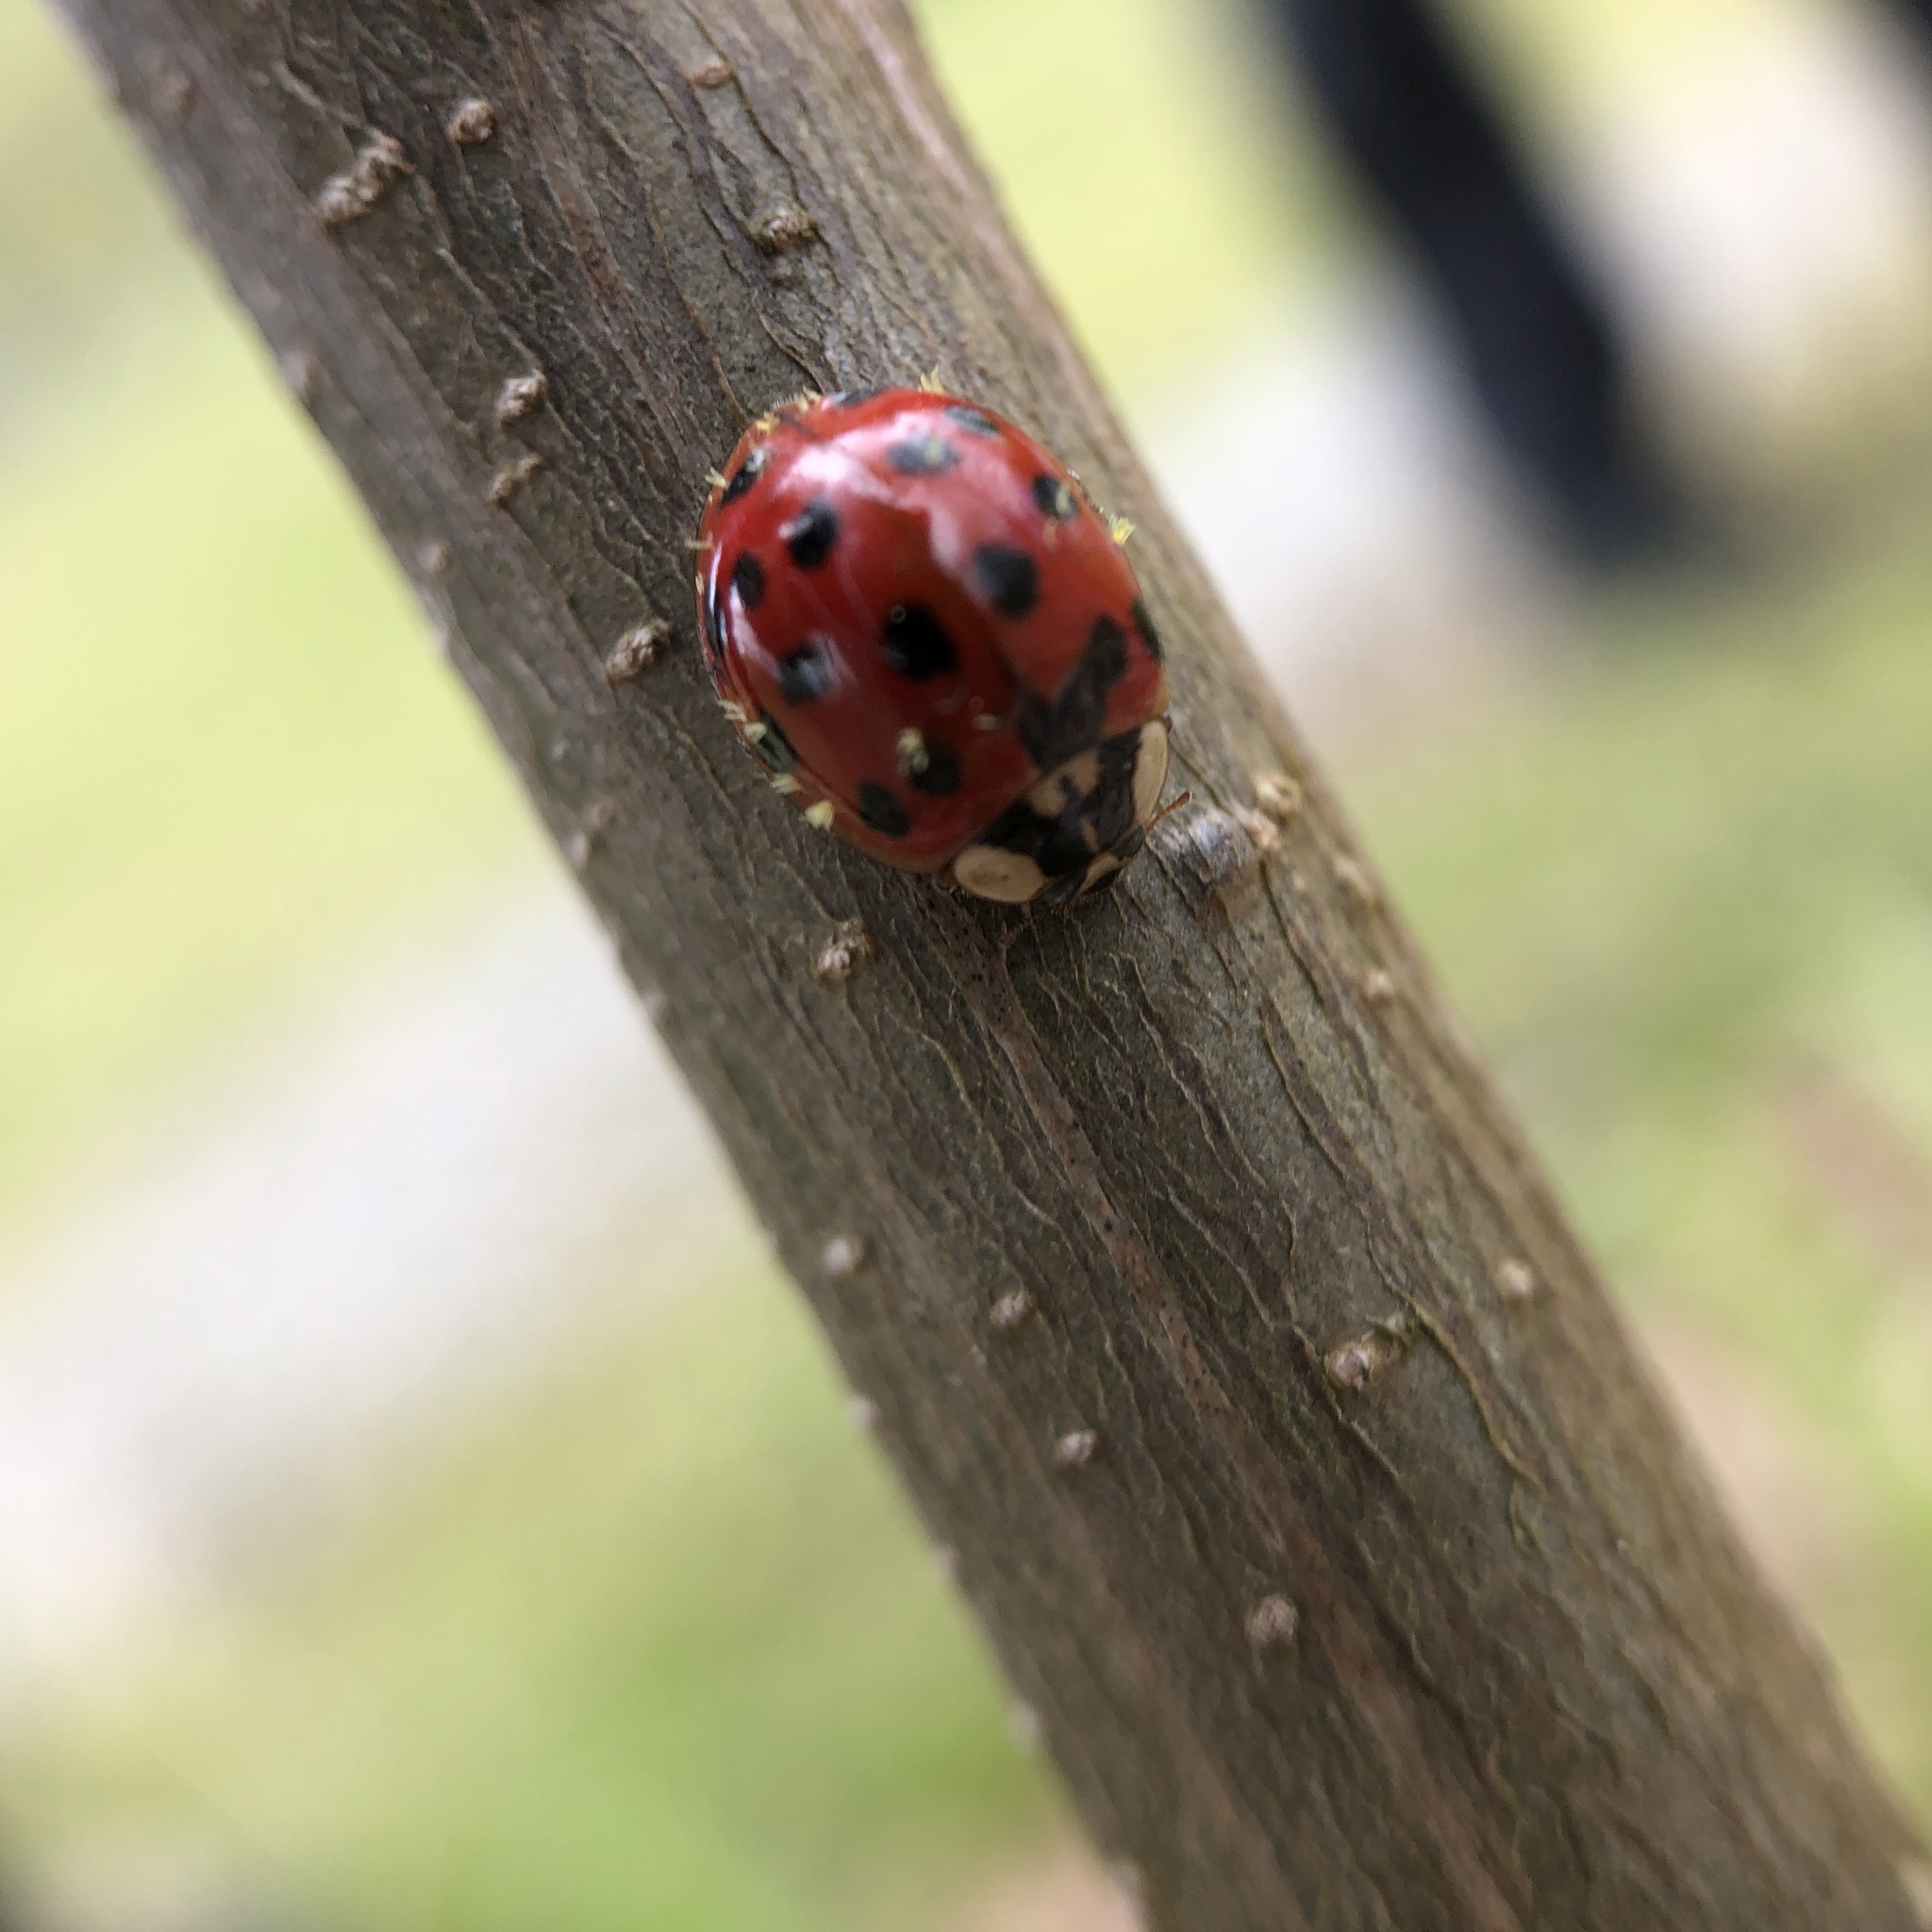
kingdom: Animalia
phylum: Arthropoda
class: Insecta
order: Coleoptera
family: Coccinellidae
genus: Harmonia
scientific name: Harmonia axyridis
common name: Harlequin ladybird
